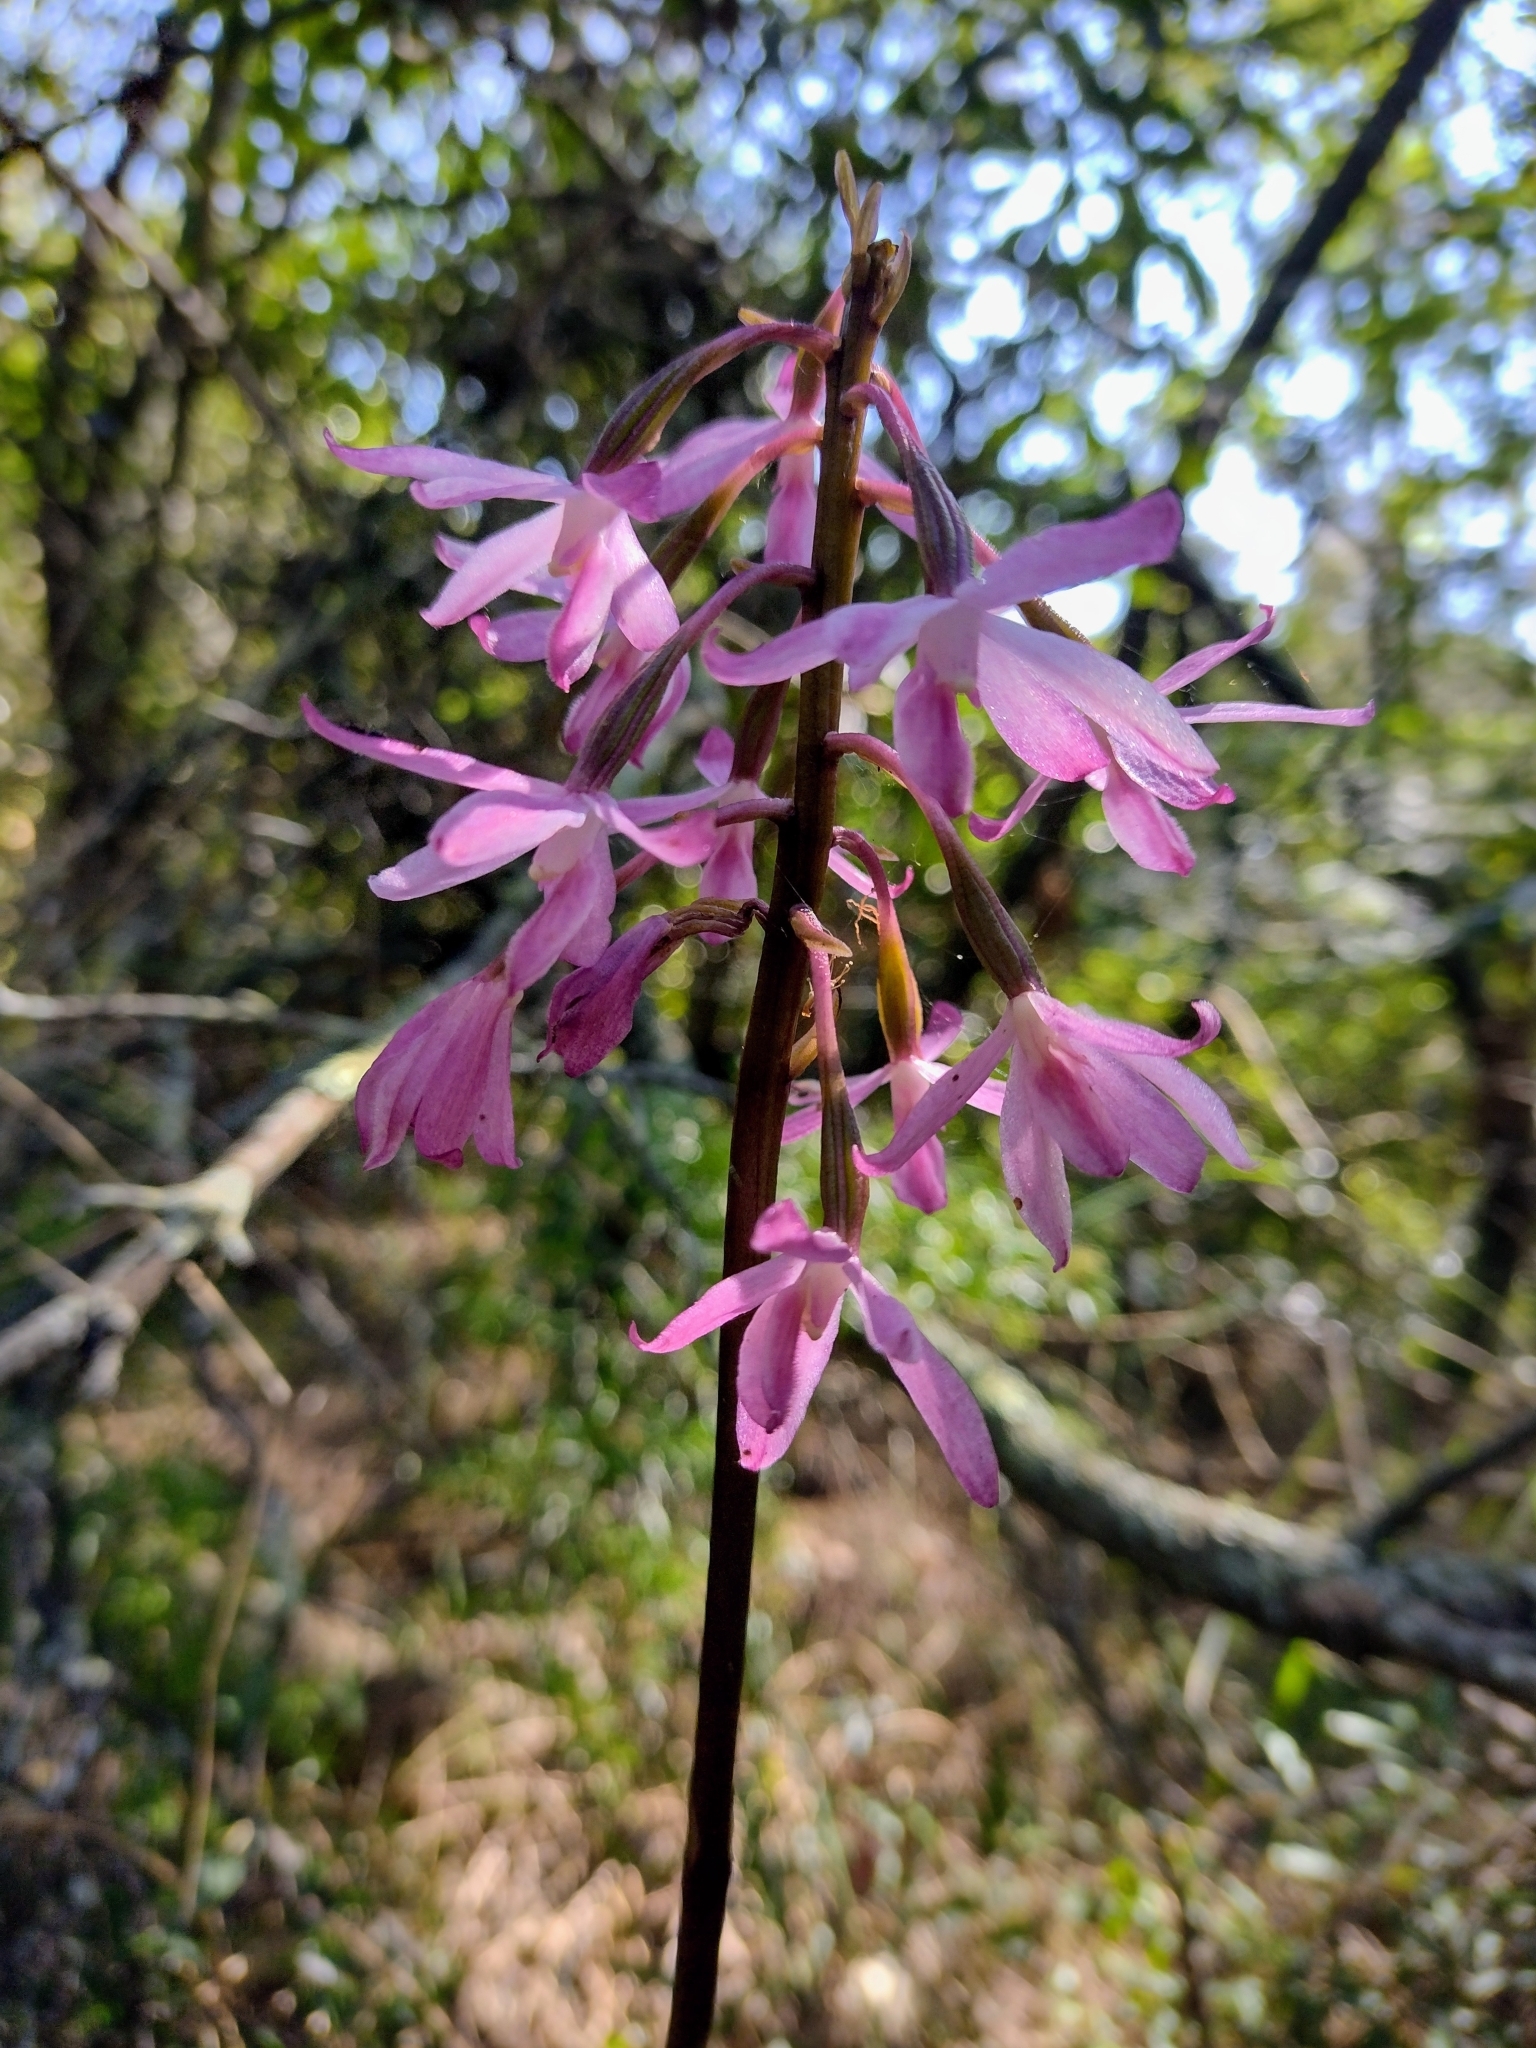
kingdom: Plantae
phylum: Tracheophyta
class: Liliopsida
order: Asparagales
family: Orchidaceae
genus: Dipodium
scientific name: Dipodium roseum
